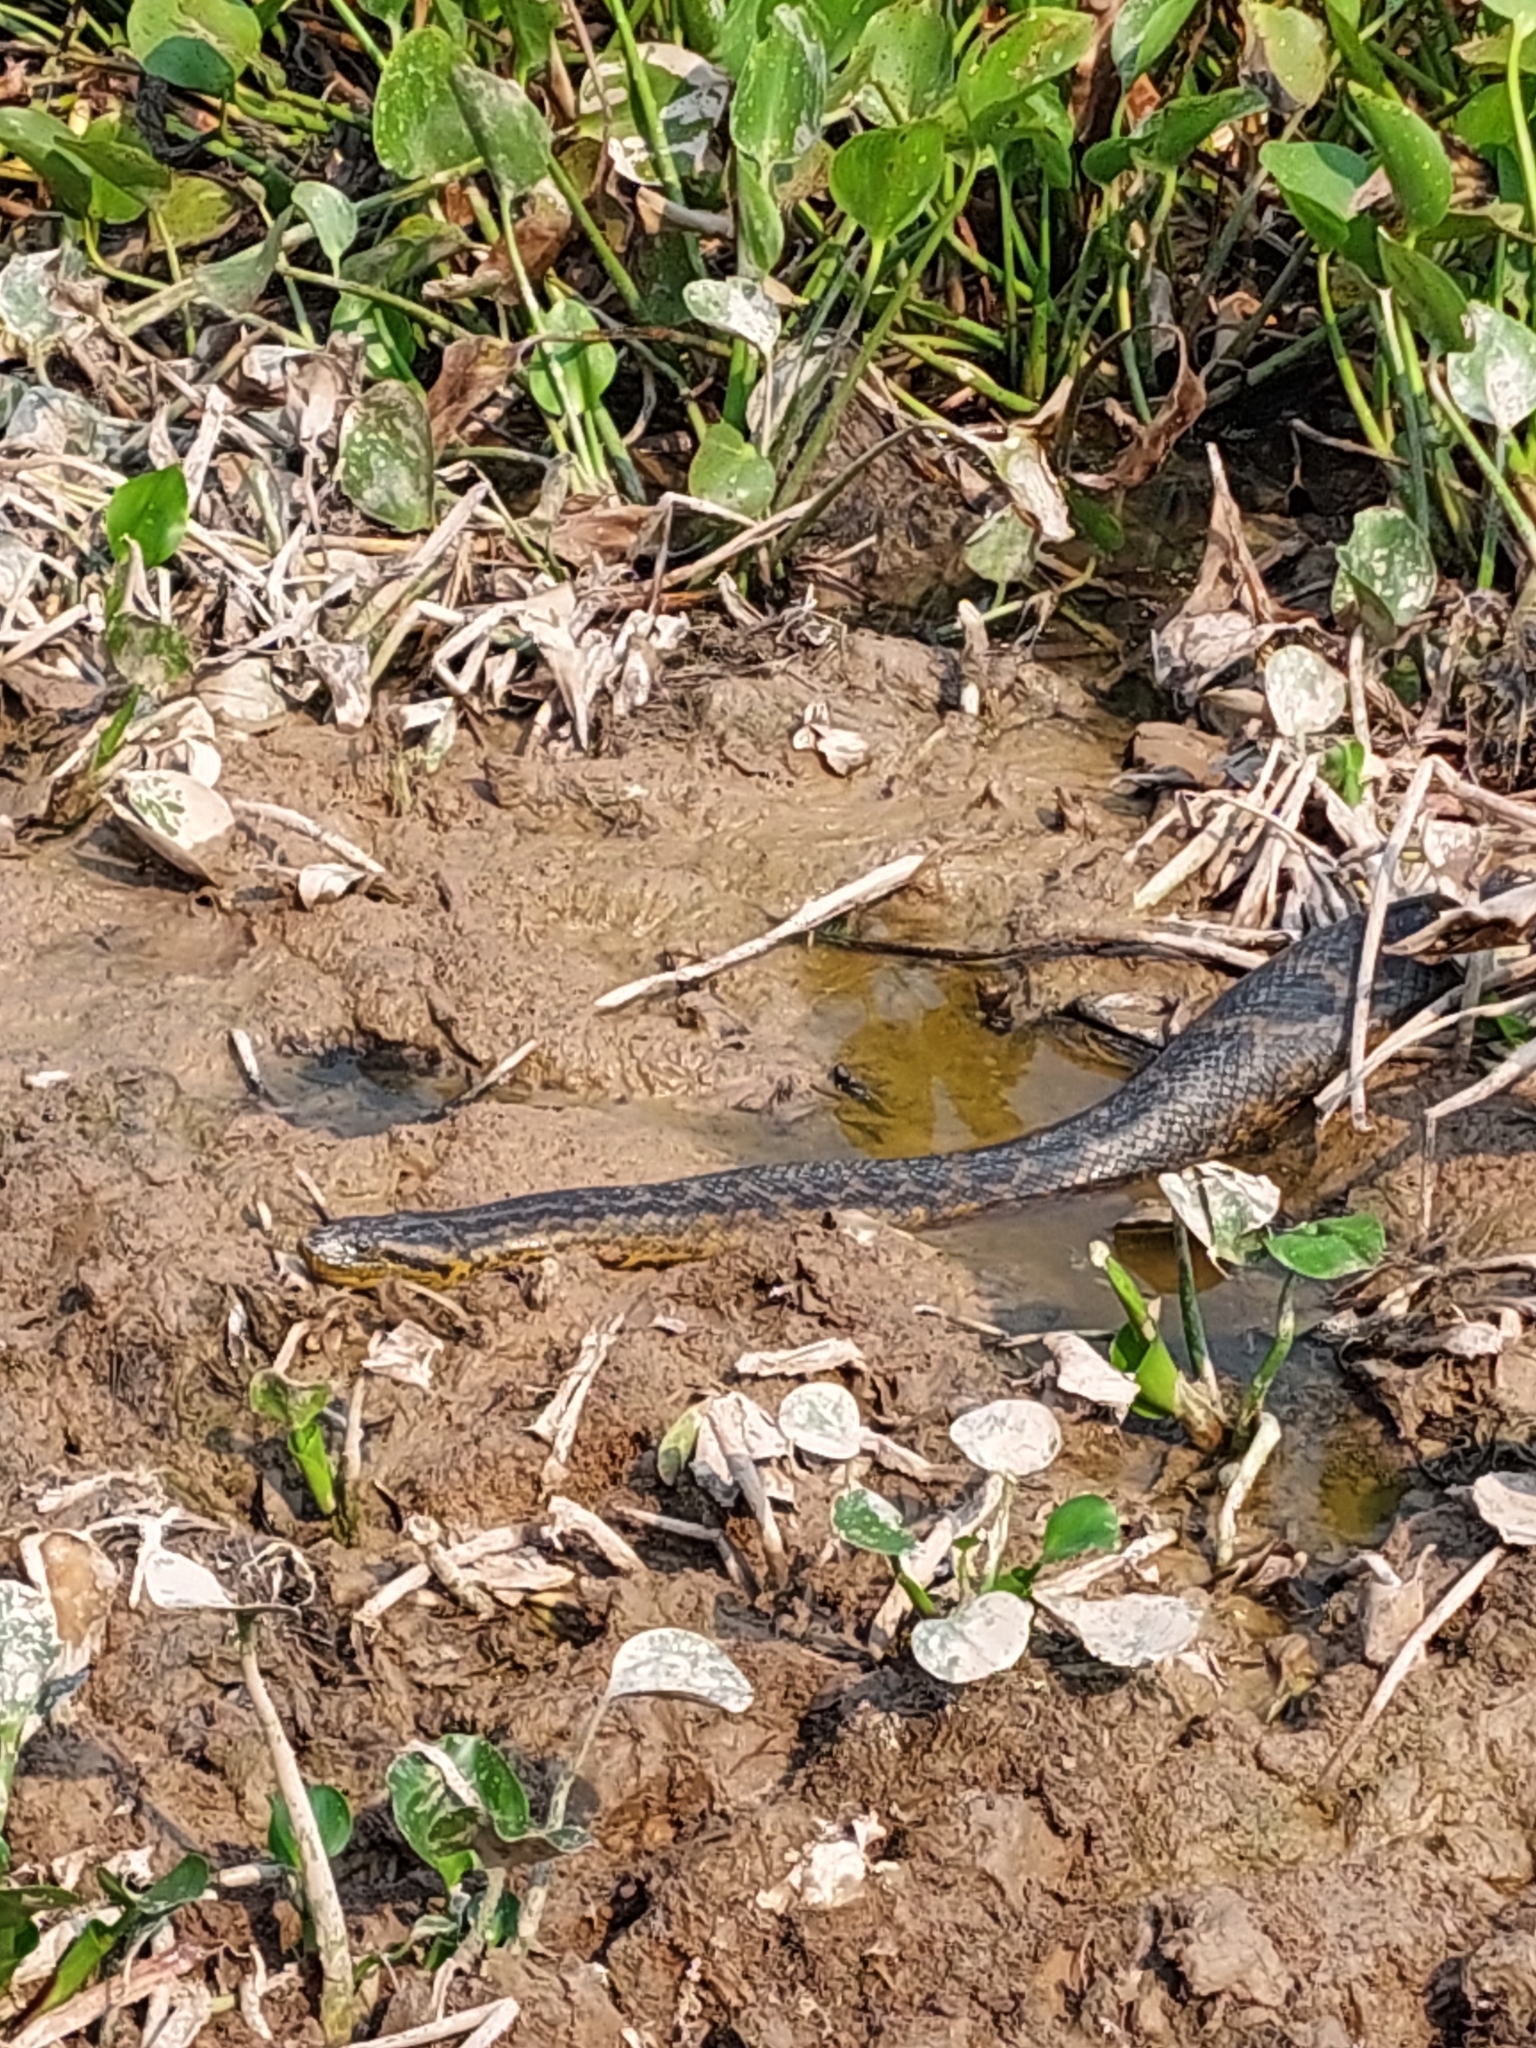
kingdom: Animalia
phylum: Chordata
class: Squamata
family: Boidae
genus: Eunectes
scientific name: Eunectes notaeus
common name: Yellow anaconda
